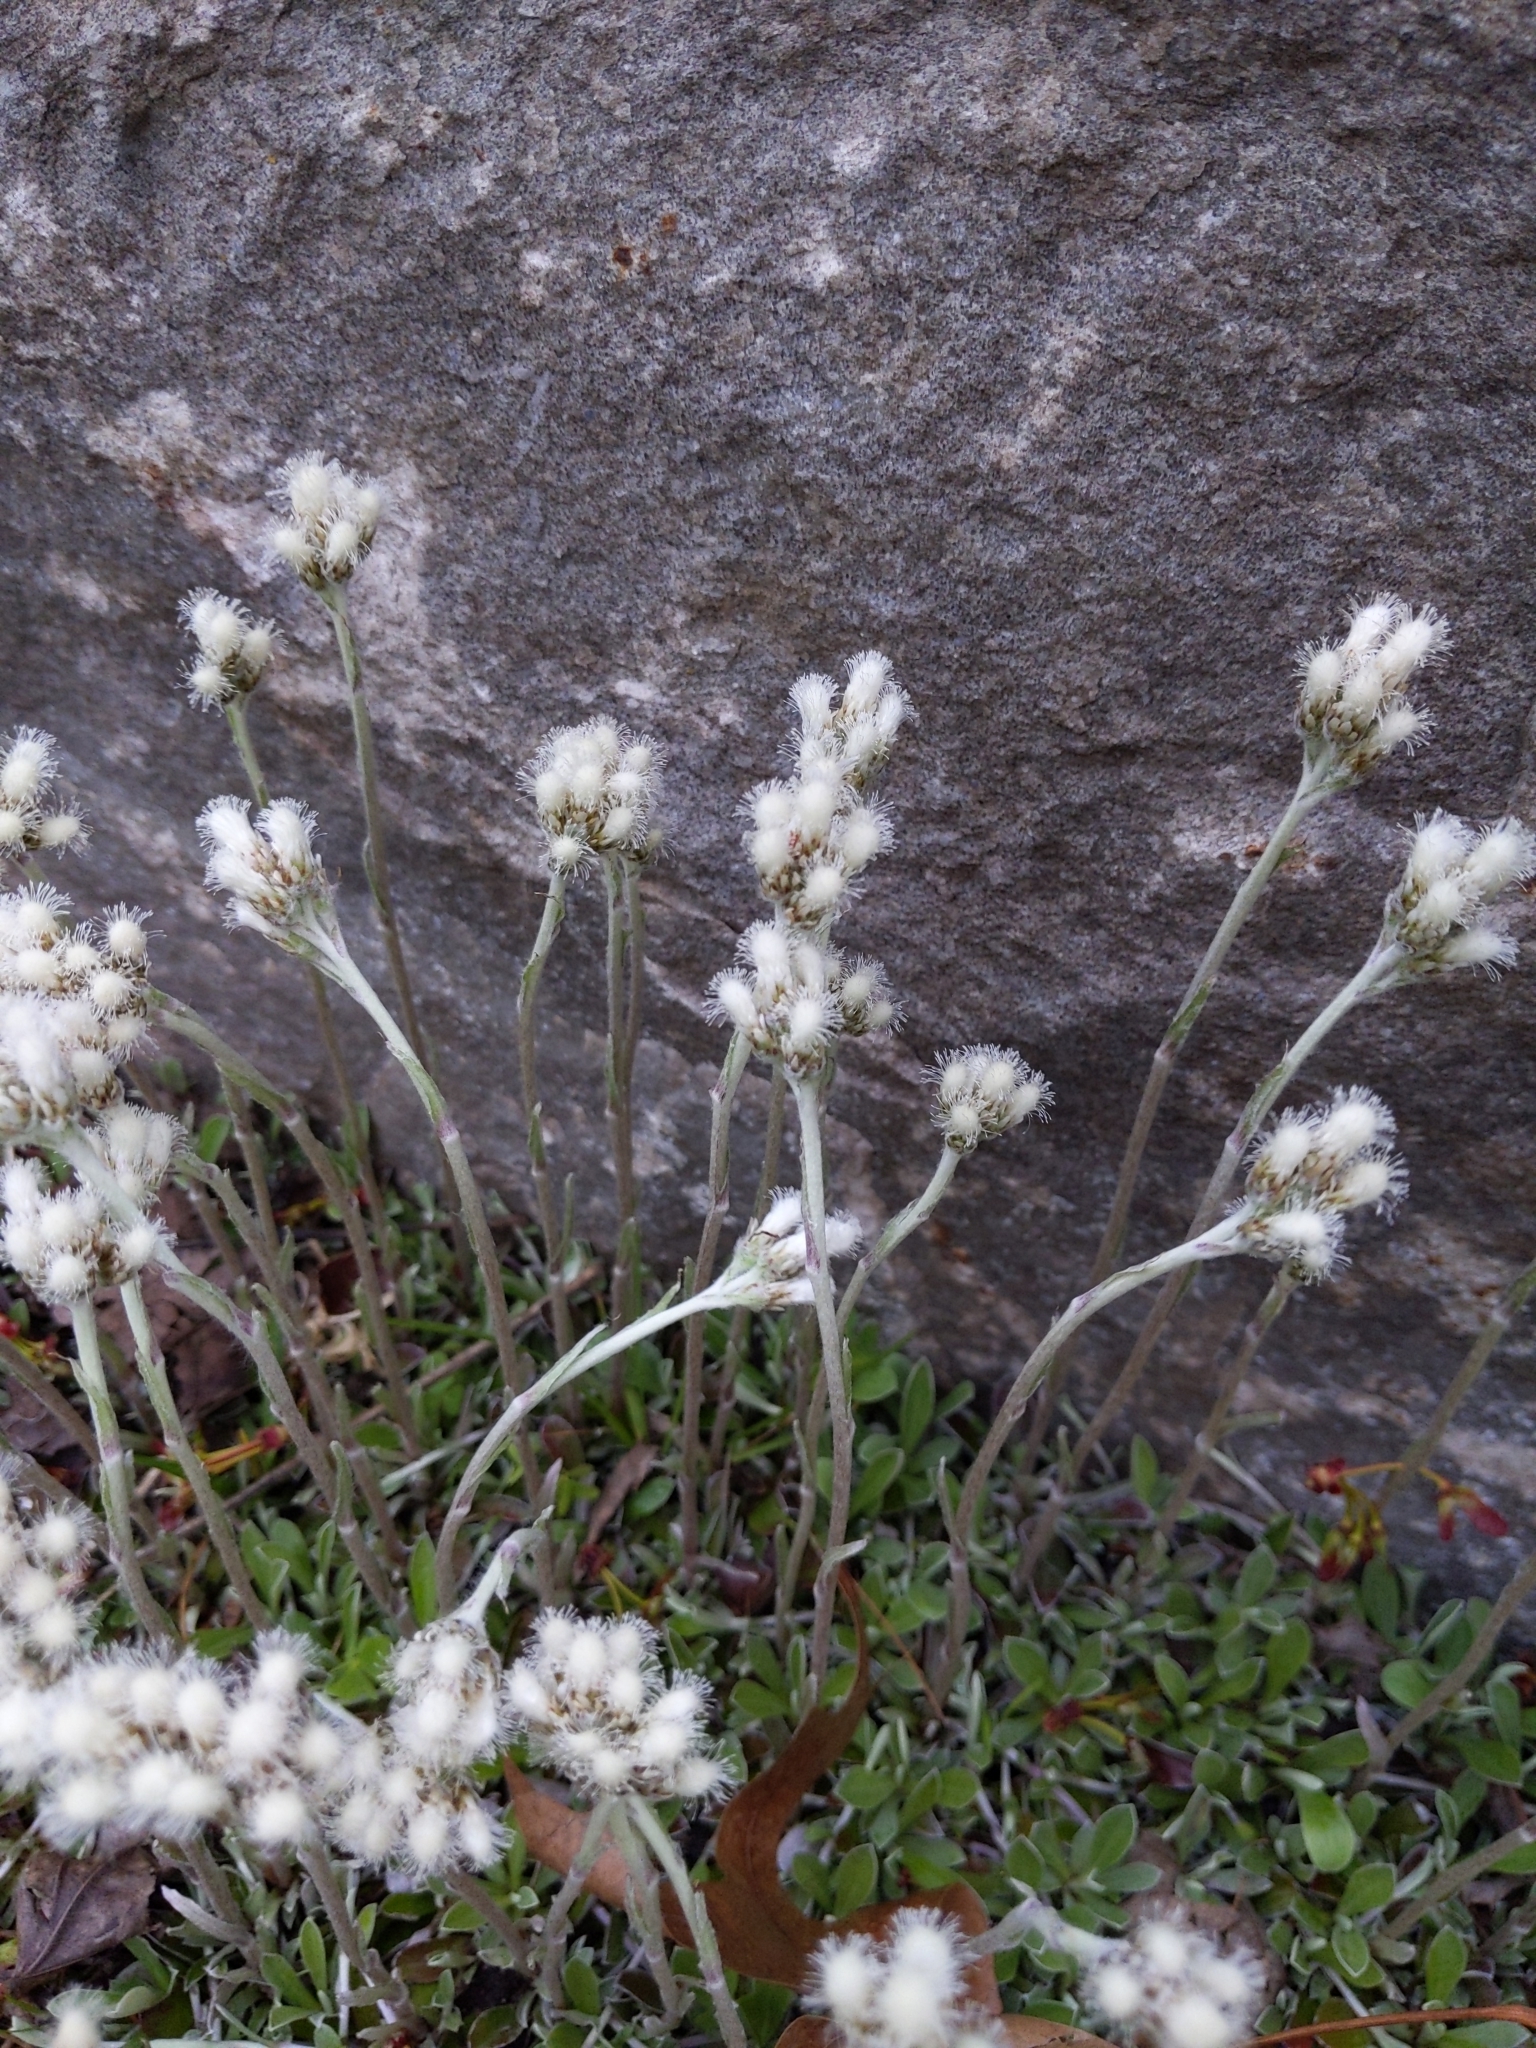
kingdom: Plantae
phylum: Tracheophyta
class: Magnoliopsida
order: Asterales
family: Asteraceae
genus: Antennaria
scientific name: Antennaria neglecta
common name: Field pussytoes
